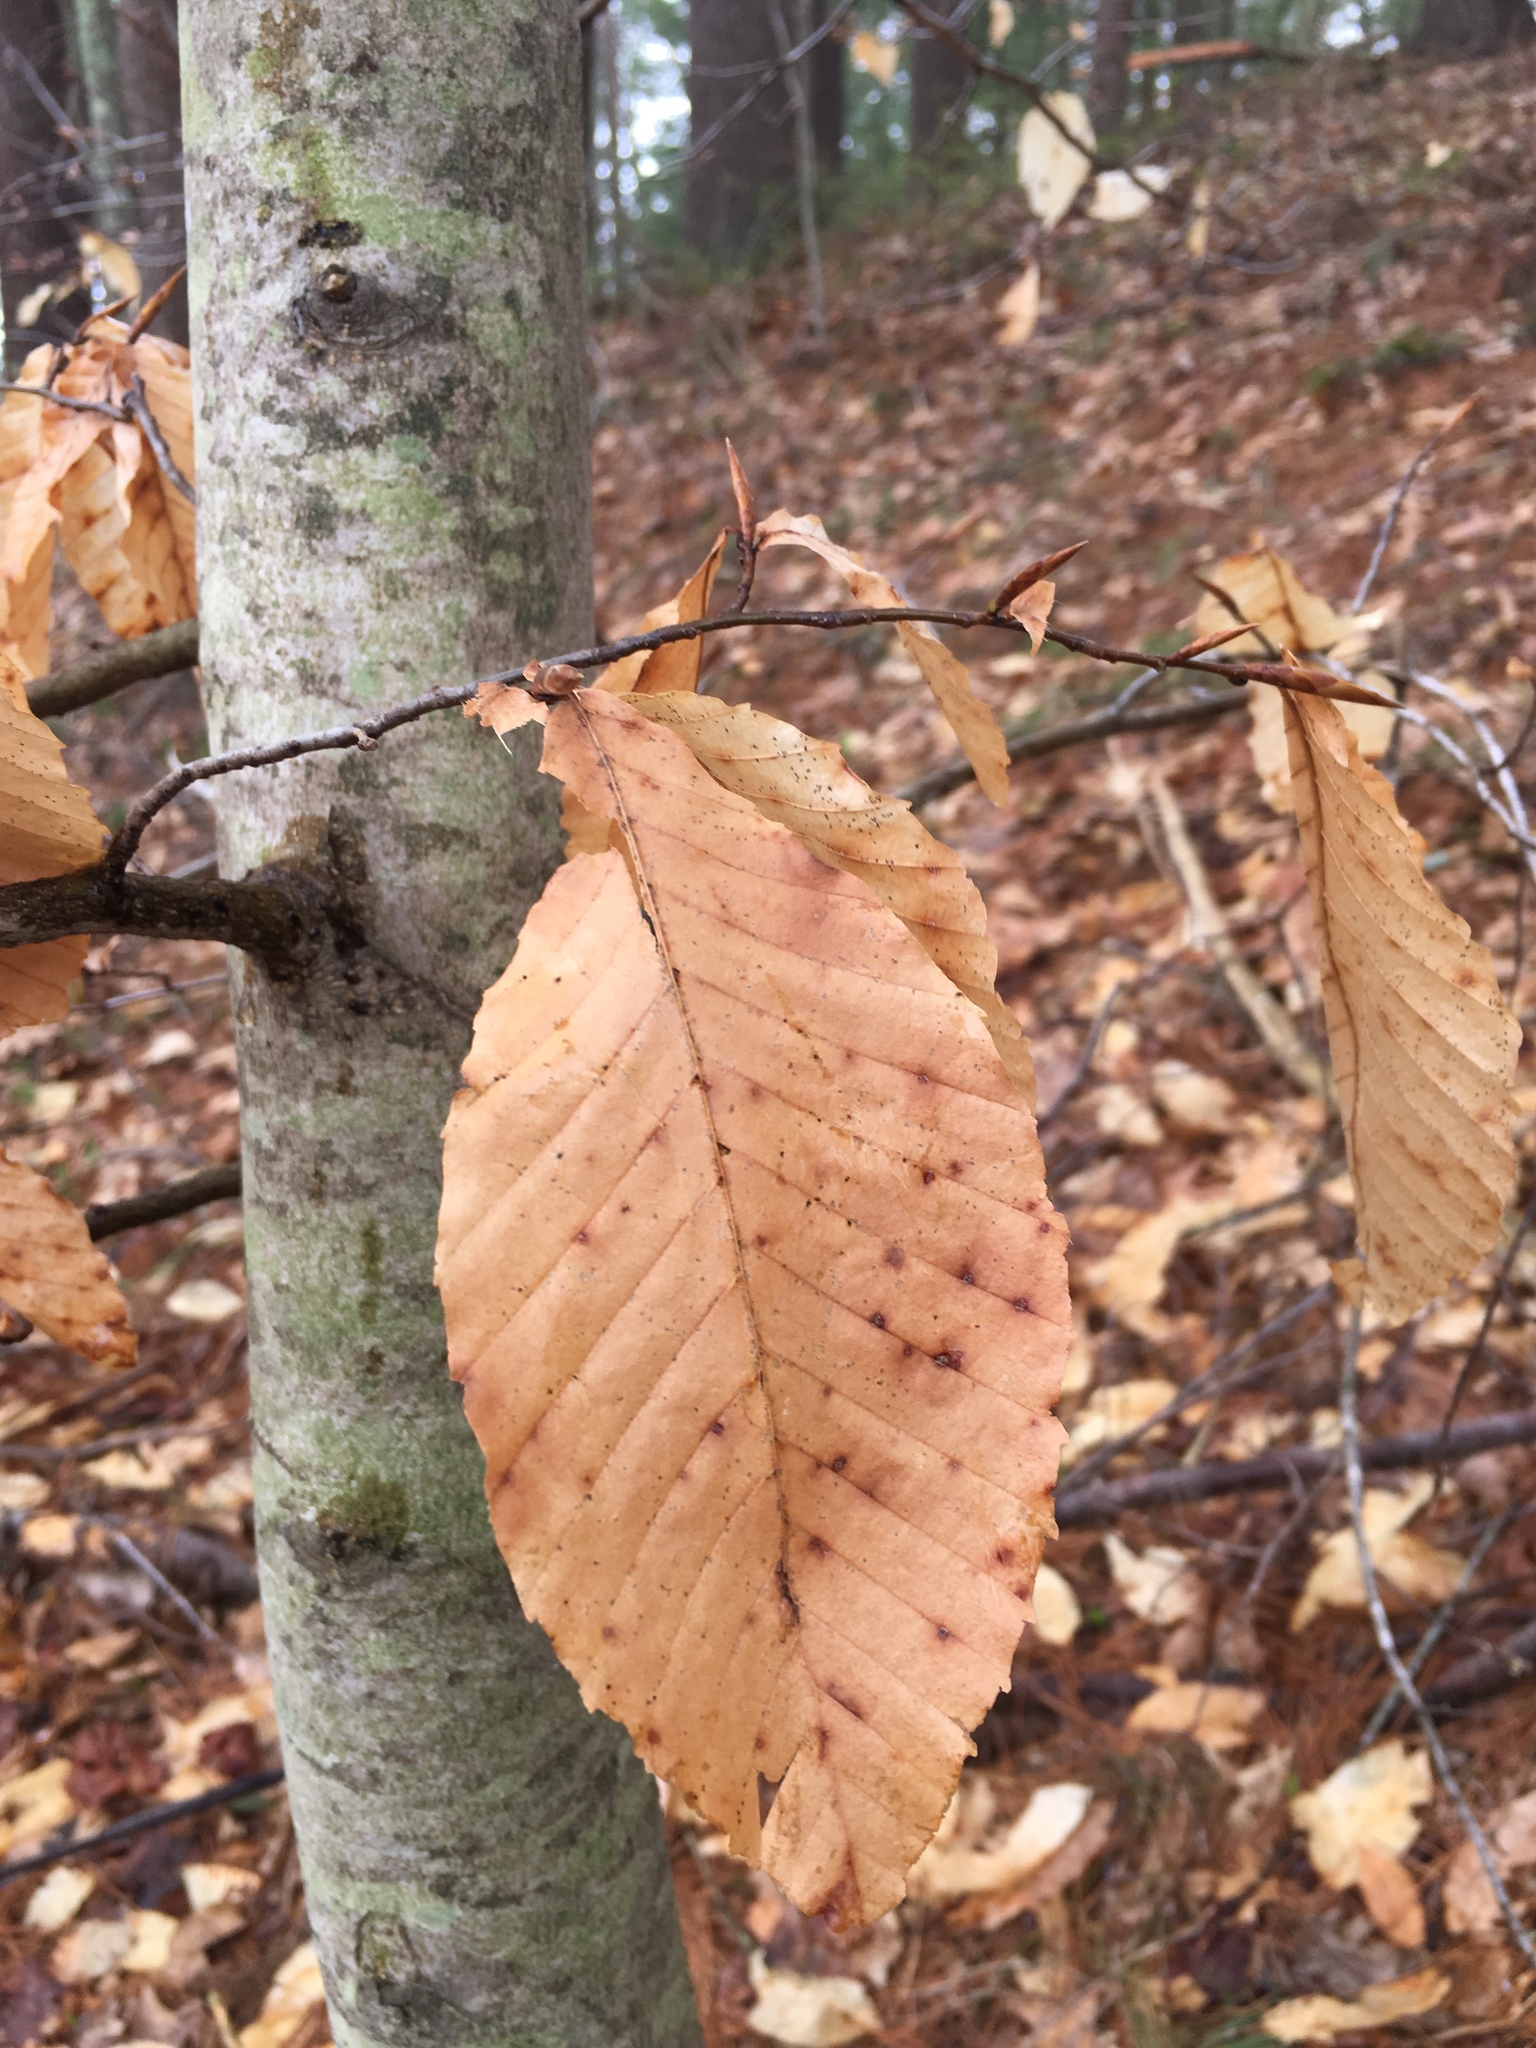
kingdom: Plantae
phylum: Tracheophyta
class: Magnoliopsida
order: Fagales
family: Fagaceae
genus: Fagus
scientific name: Fagus grandifolia
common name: American beech
